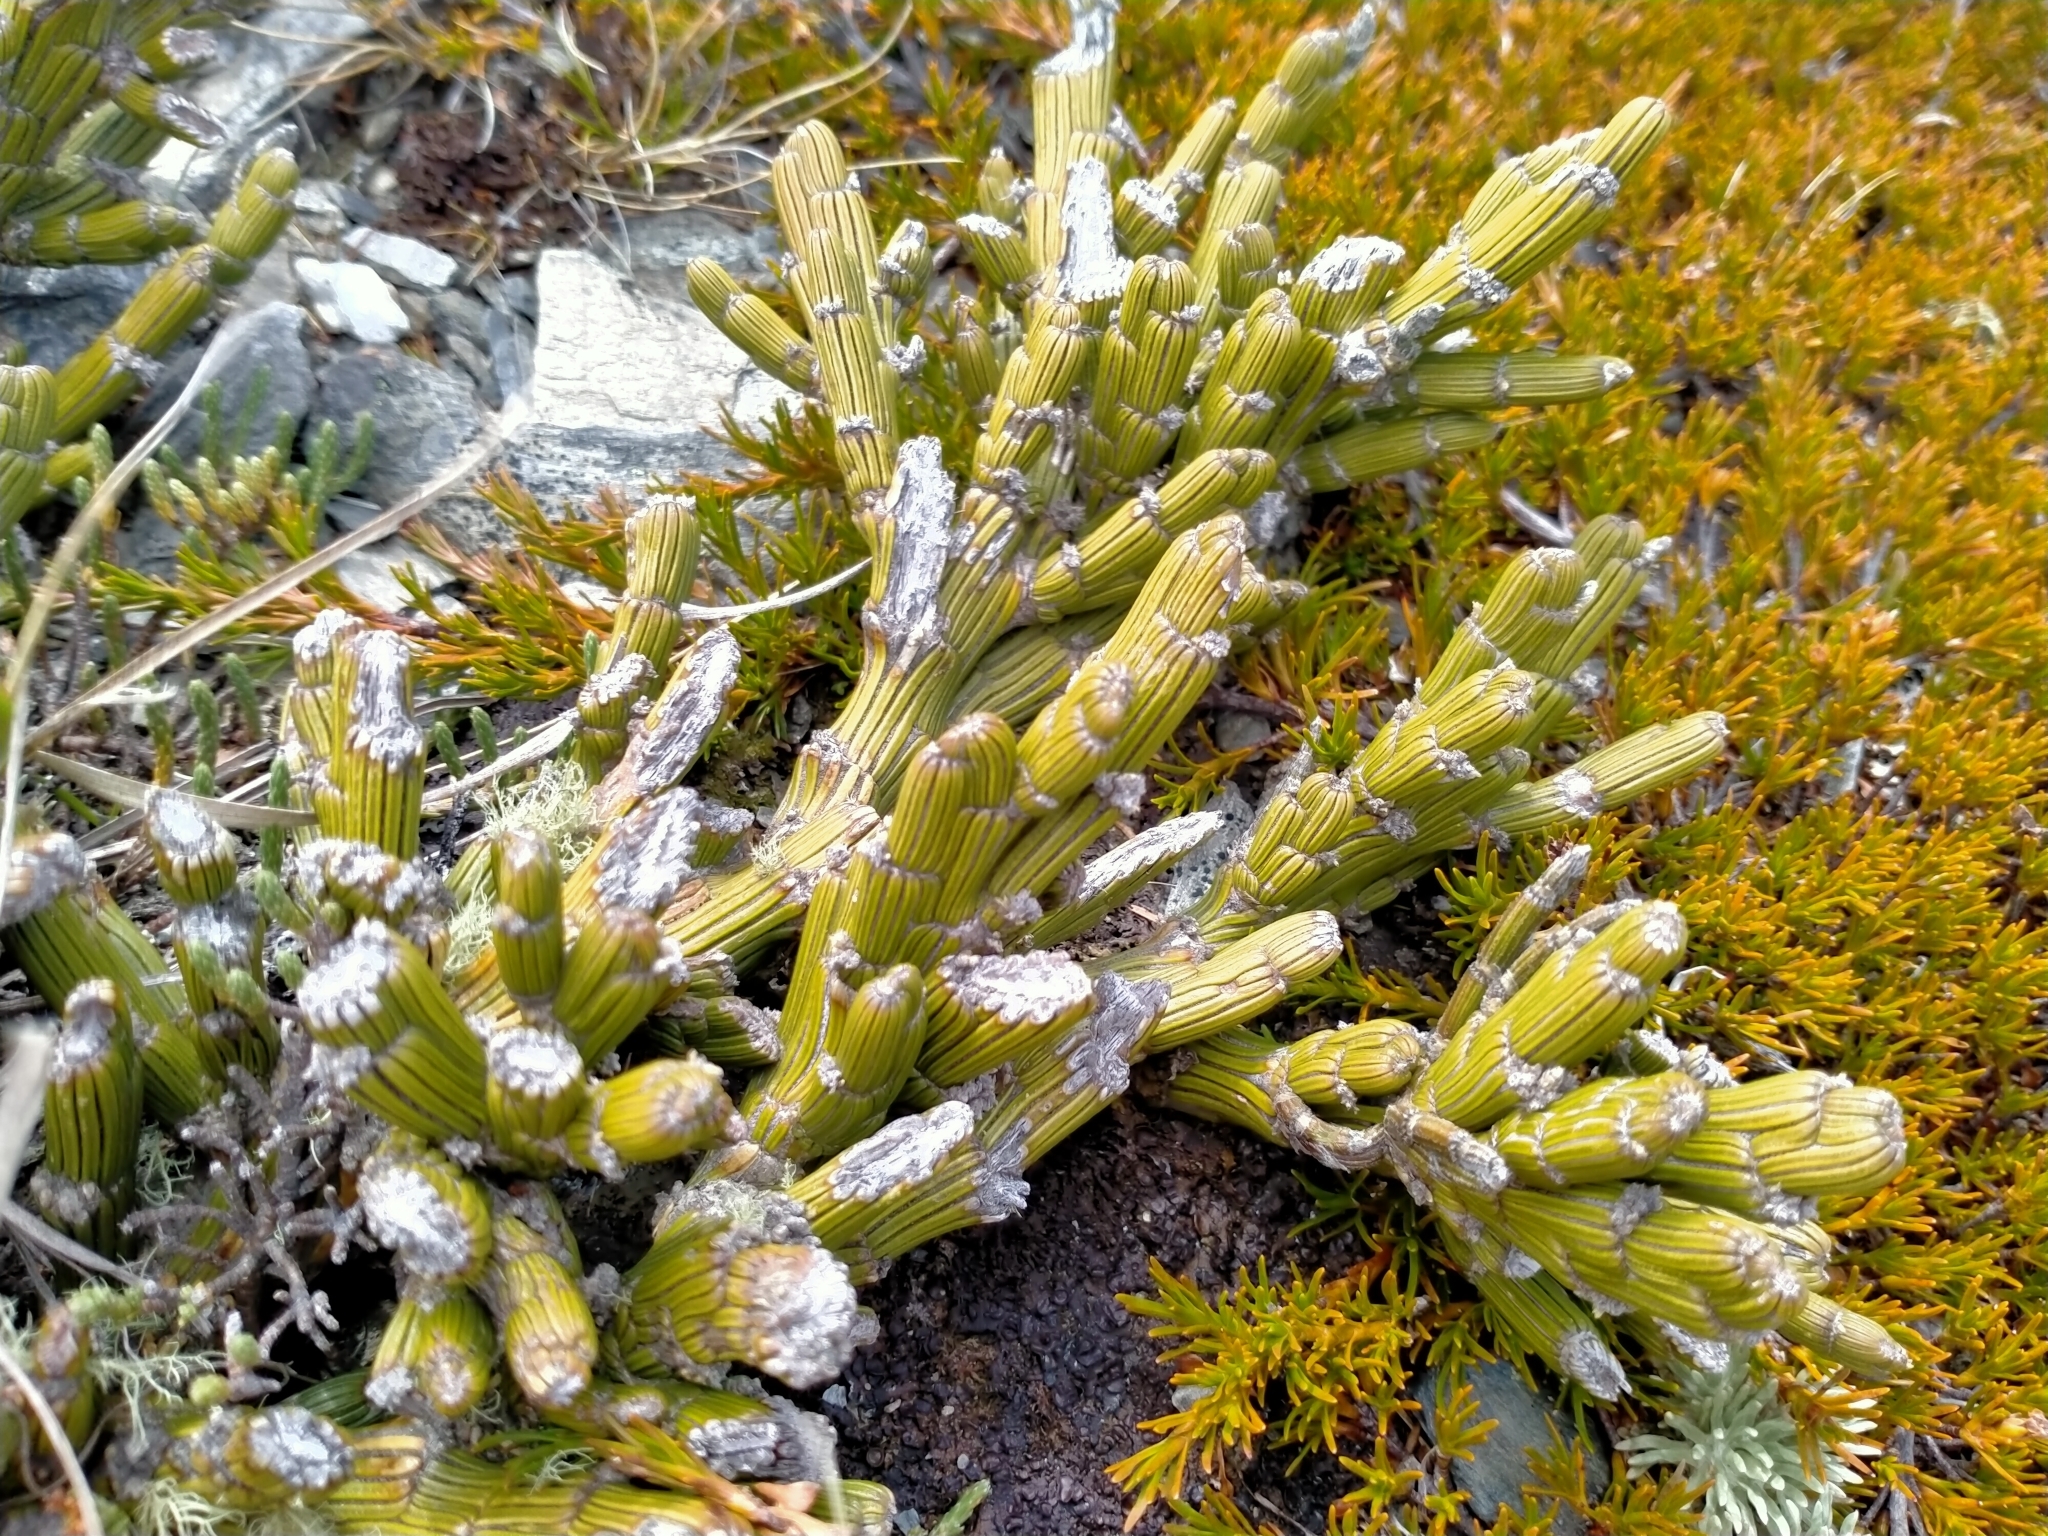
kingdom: Plantae
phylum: Tracheophyta
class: Magnoliopsida
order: Fabales
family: Fabaceae
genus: Carmichaelia
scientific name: Carmichaelia crassicaulis
